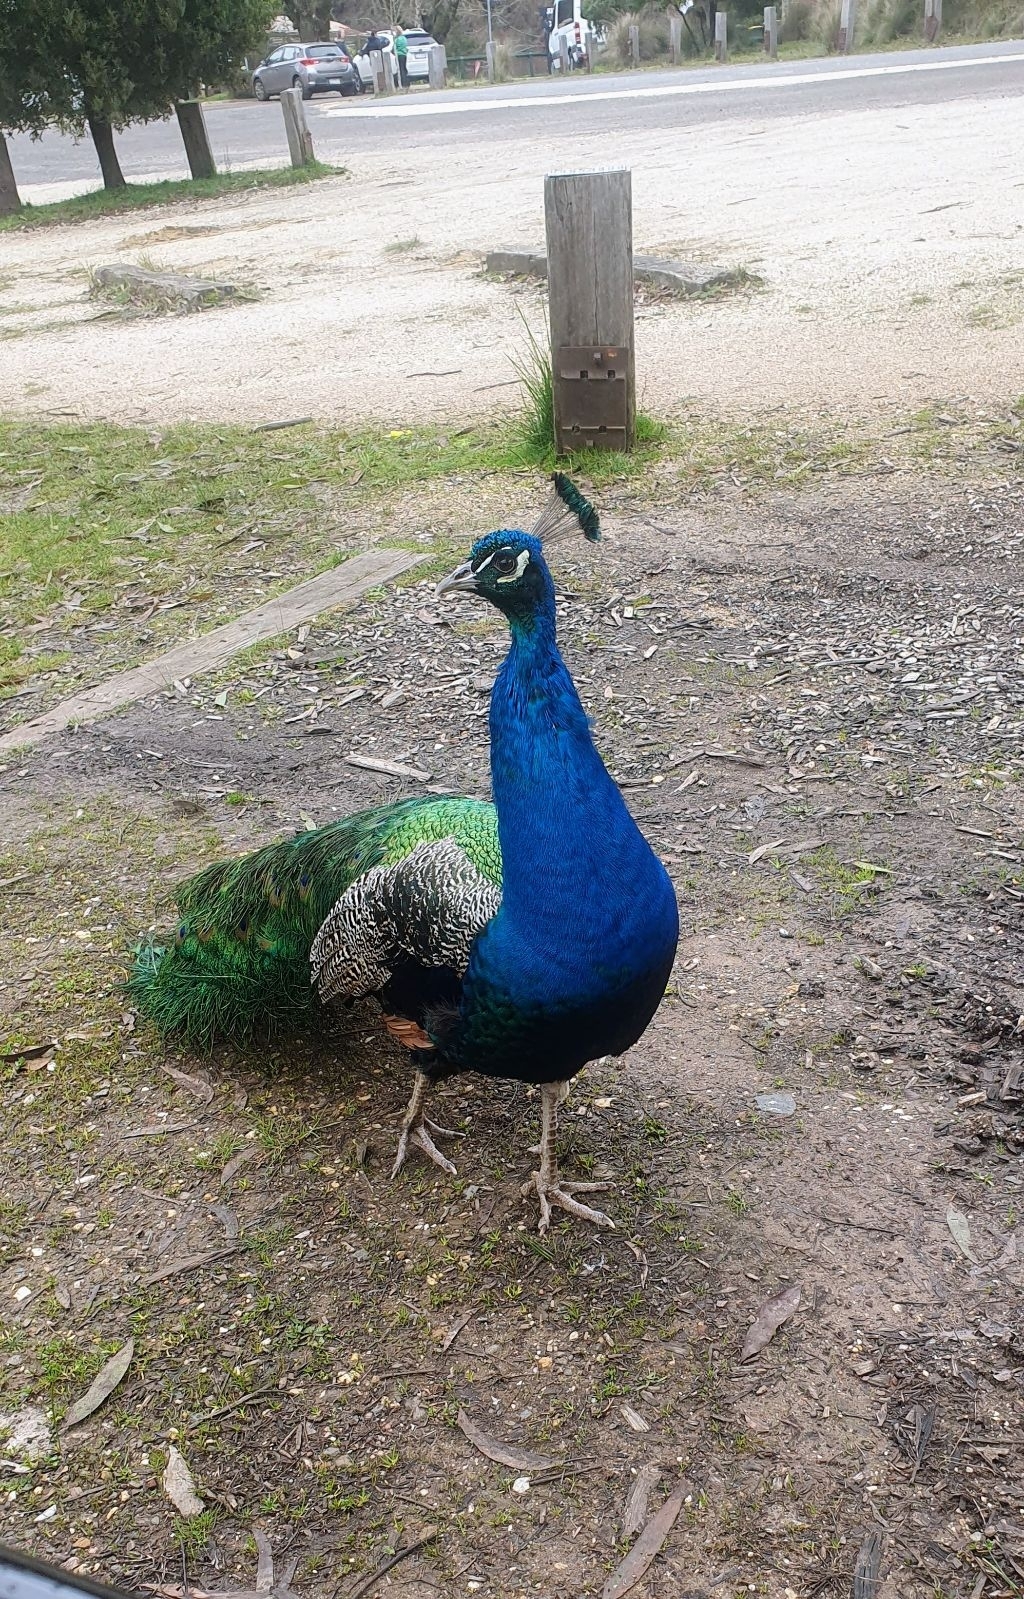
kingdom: Animalia
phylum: Chordata
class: Aves
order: Galliformes
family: Phasianidae
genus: Pavo
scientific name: Pavo cristatus
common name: Indian peafowl
